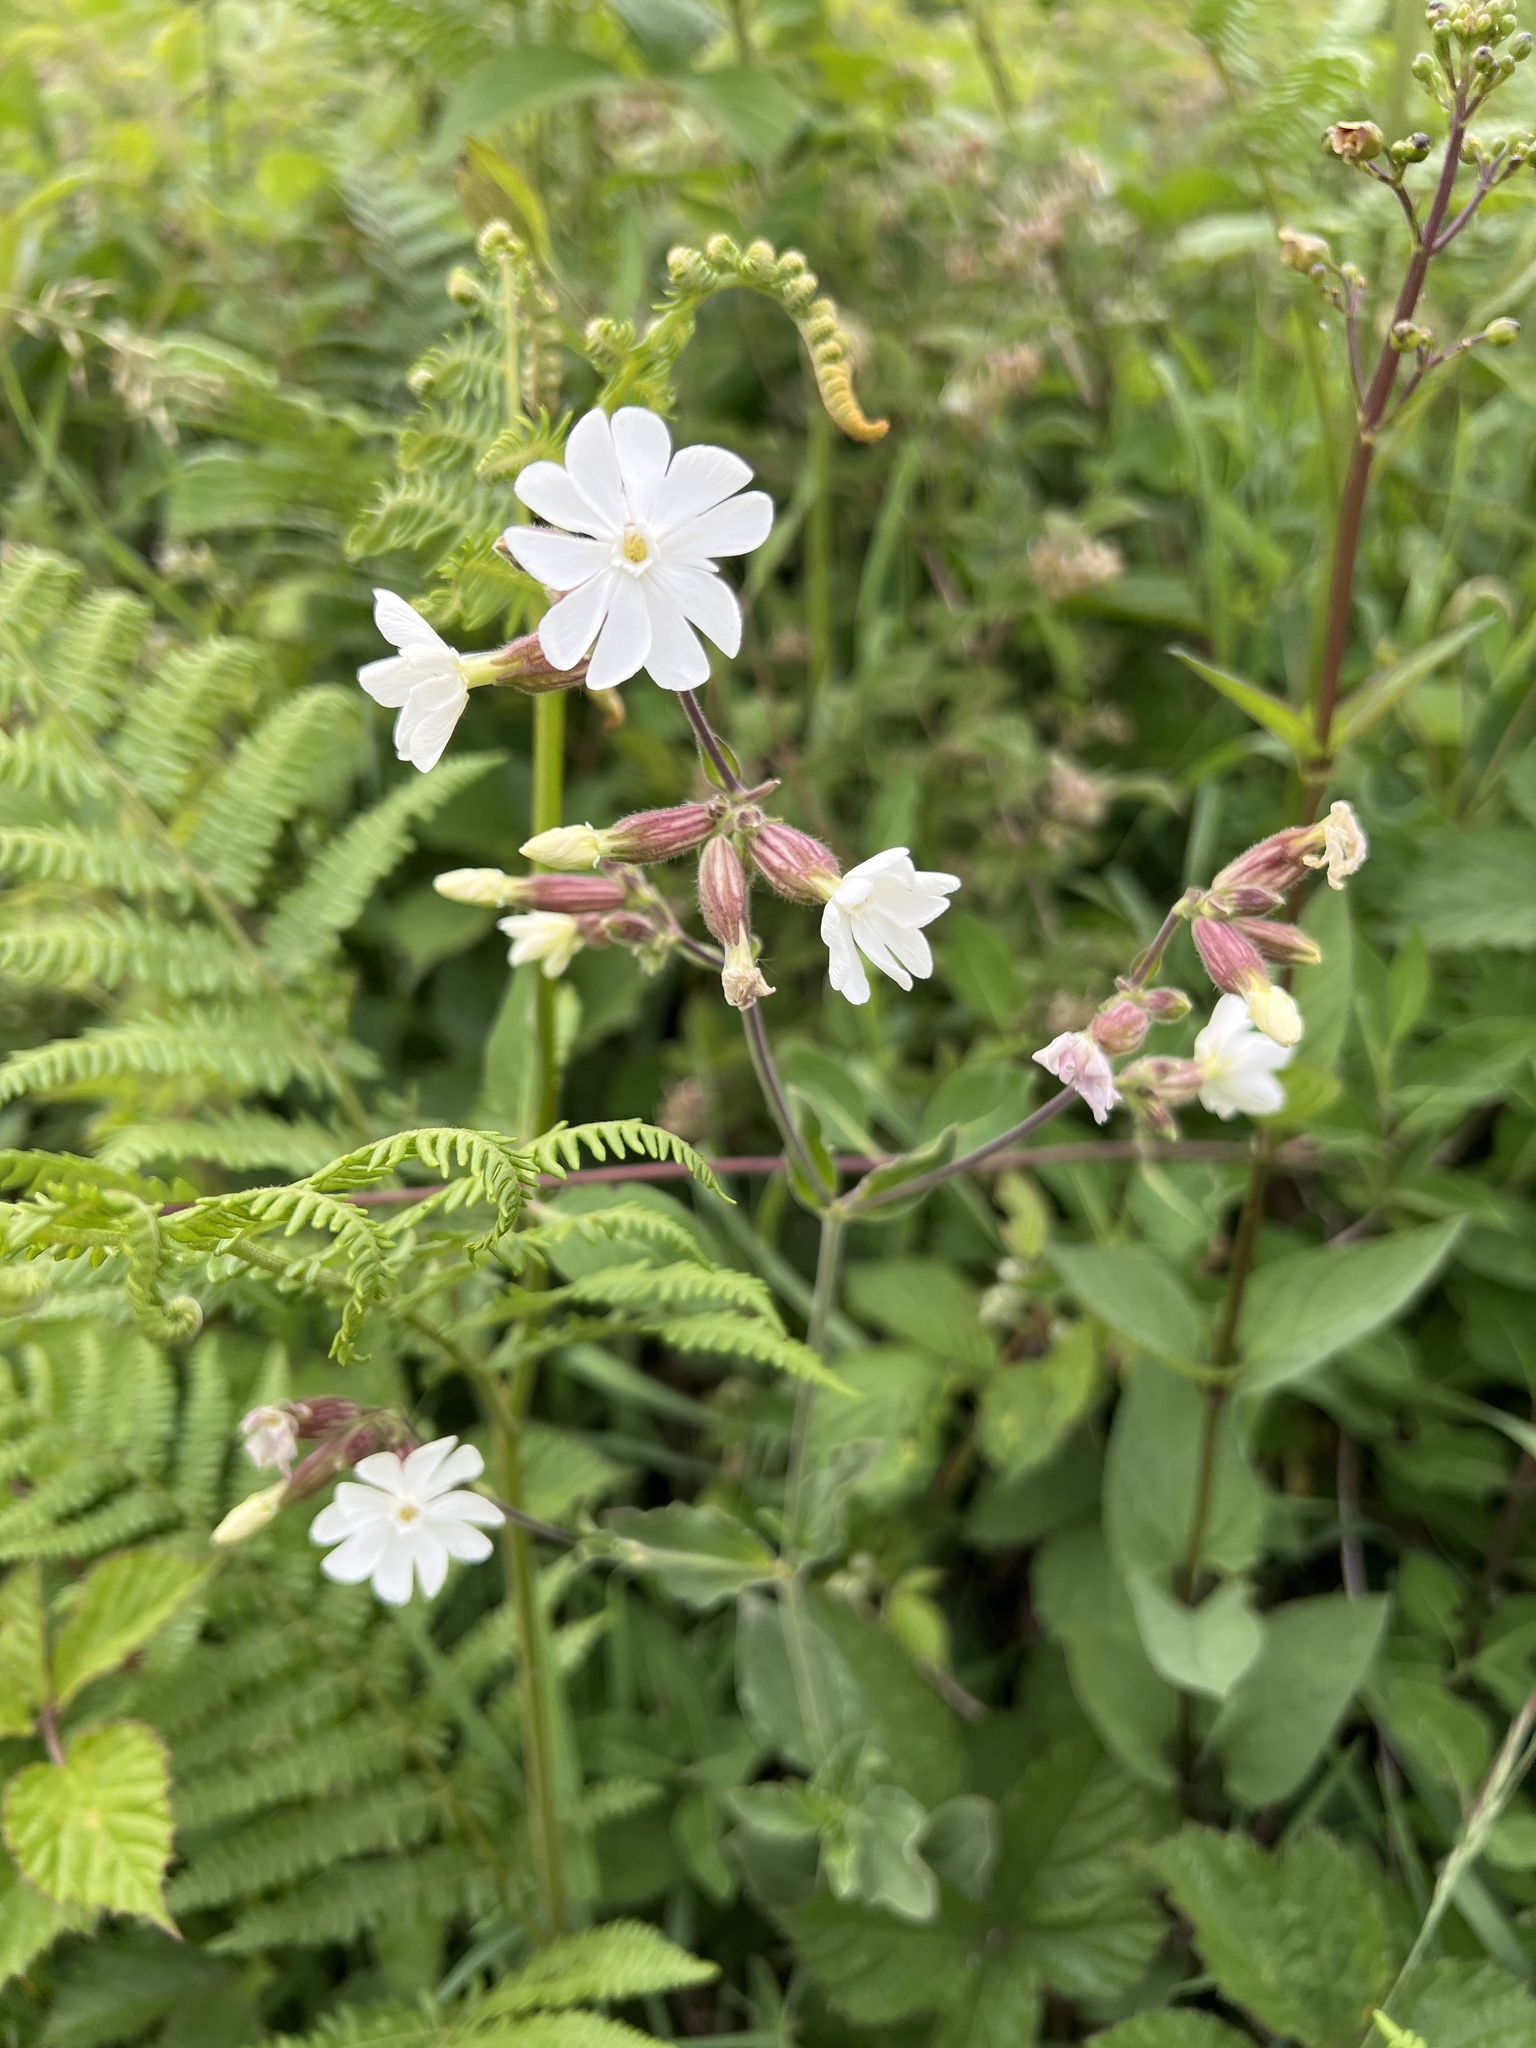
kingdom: Plantae
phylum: Tracheophyta
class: Magnoliopsida
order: Caryophyllales
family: Caryophyllaceae
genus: Silene
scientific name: Silene latifolia
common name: White campion
